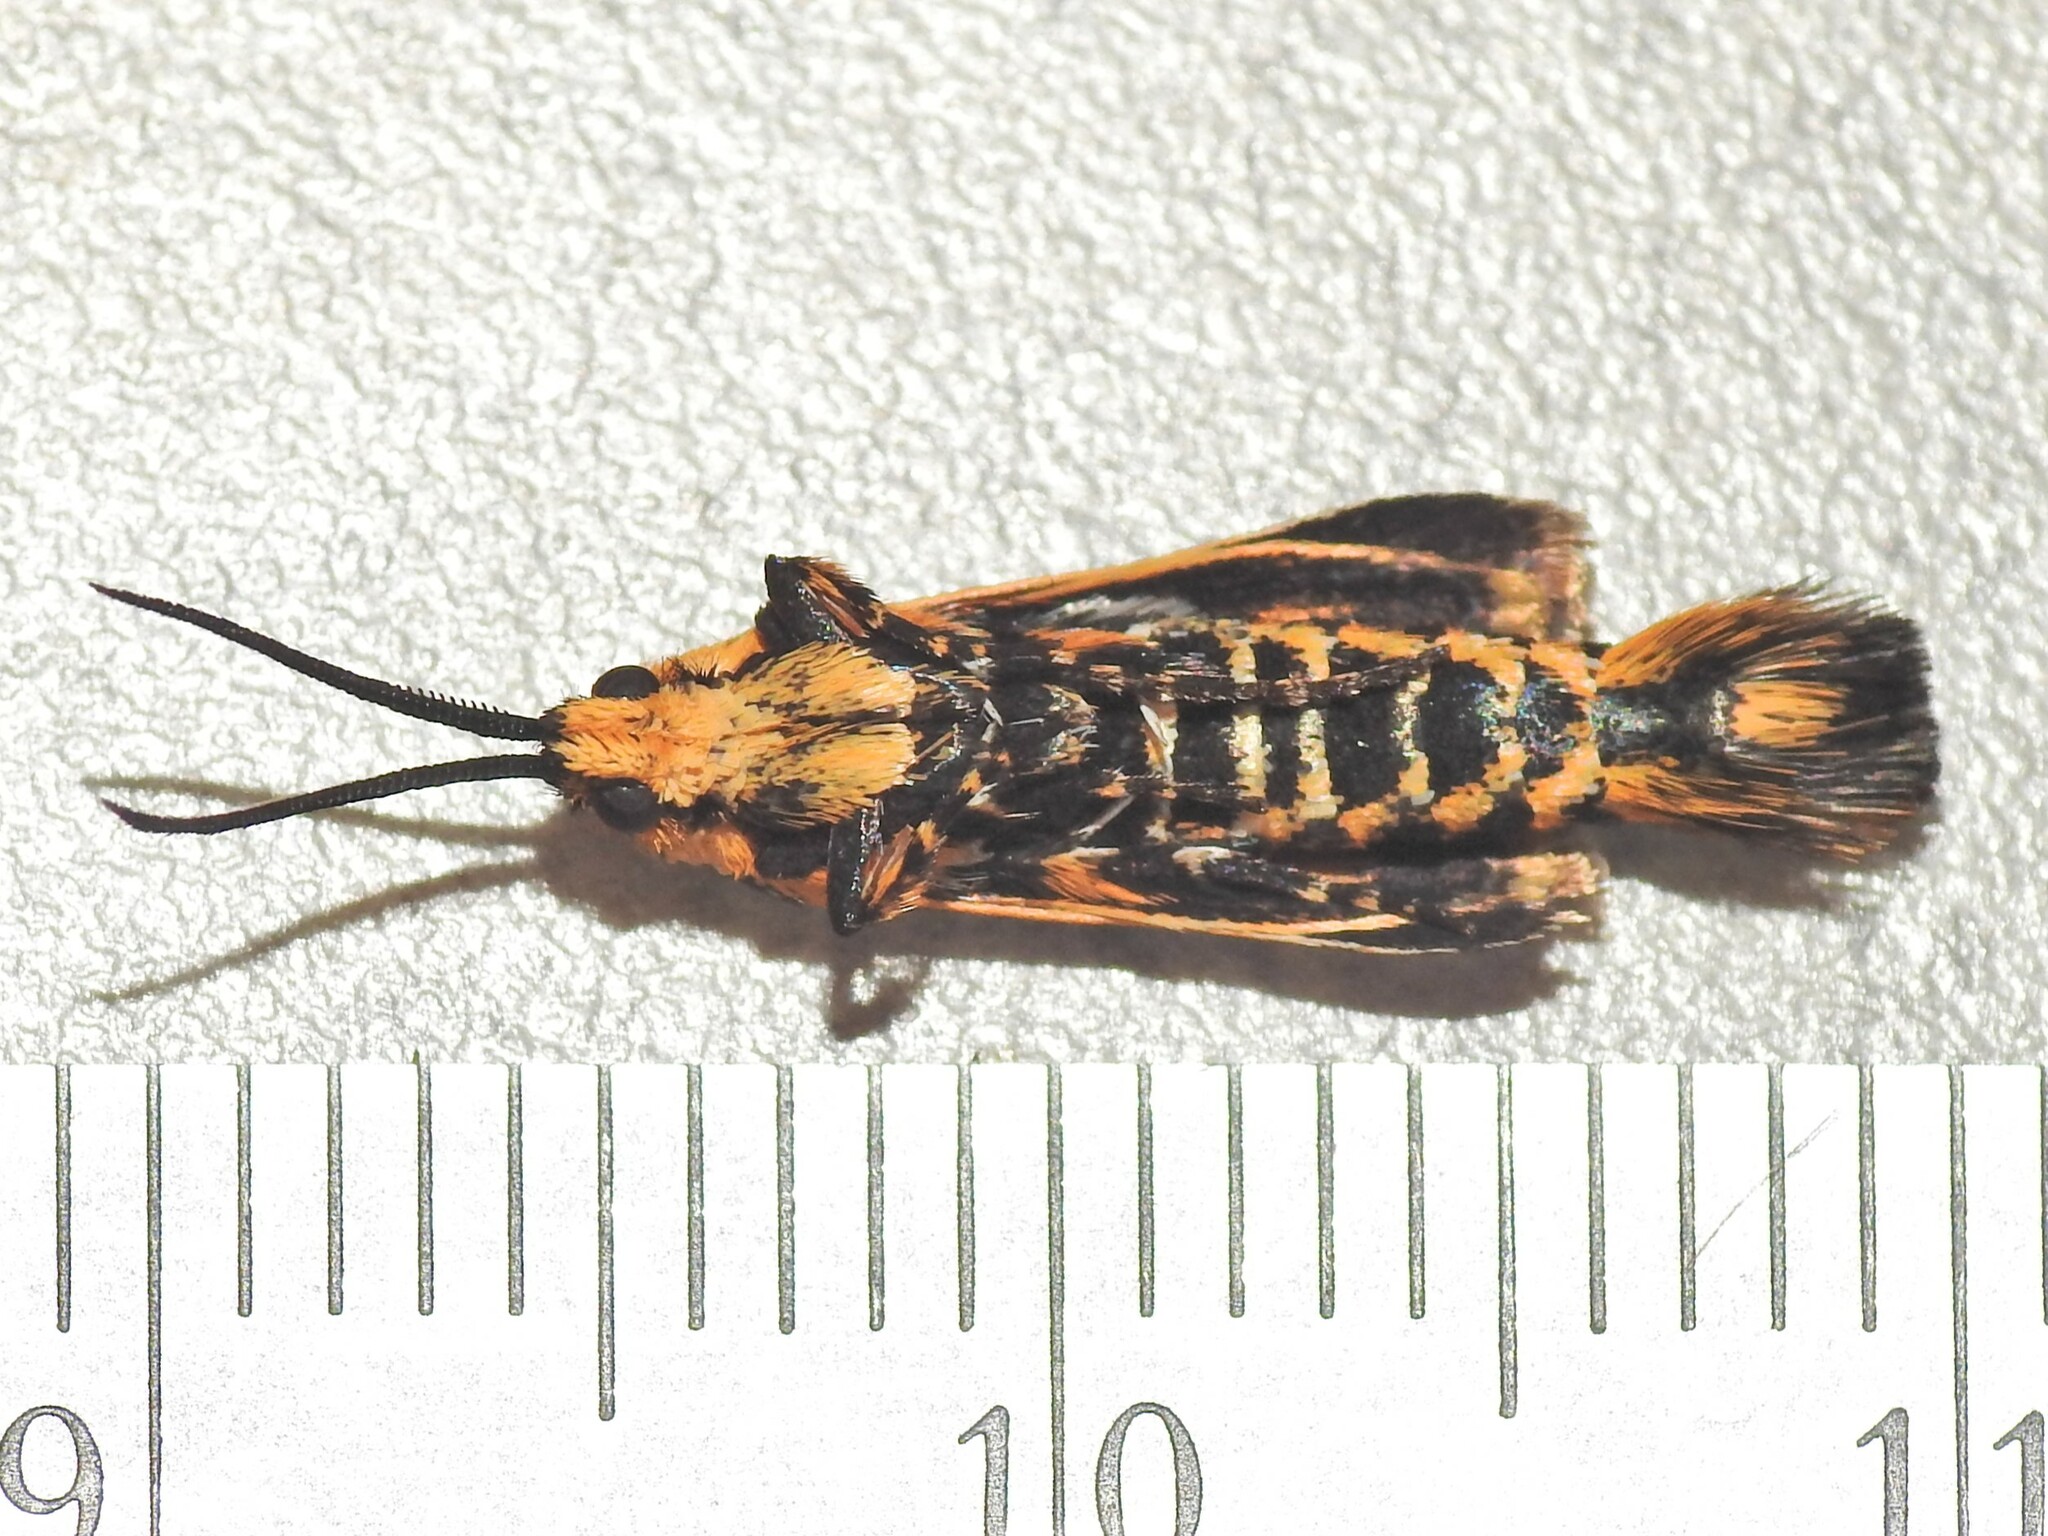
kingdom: Animalia
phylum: Arthropoda
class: Insecta
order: Lepidoptera
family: Brachodidae
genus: Miscera
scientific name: Miscera homotona
